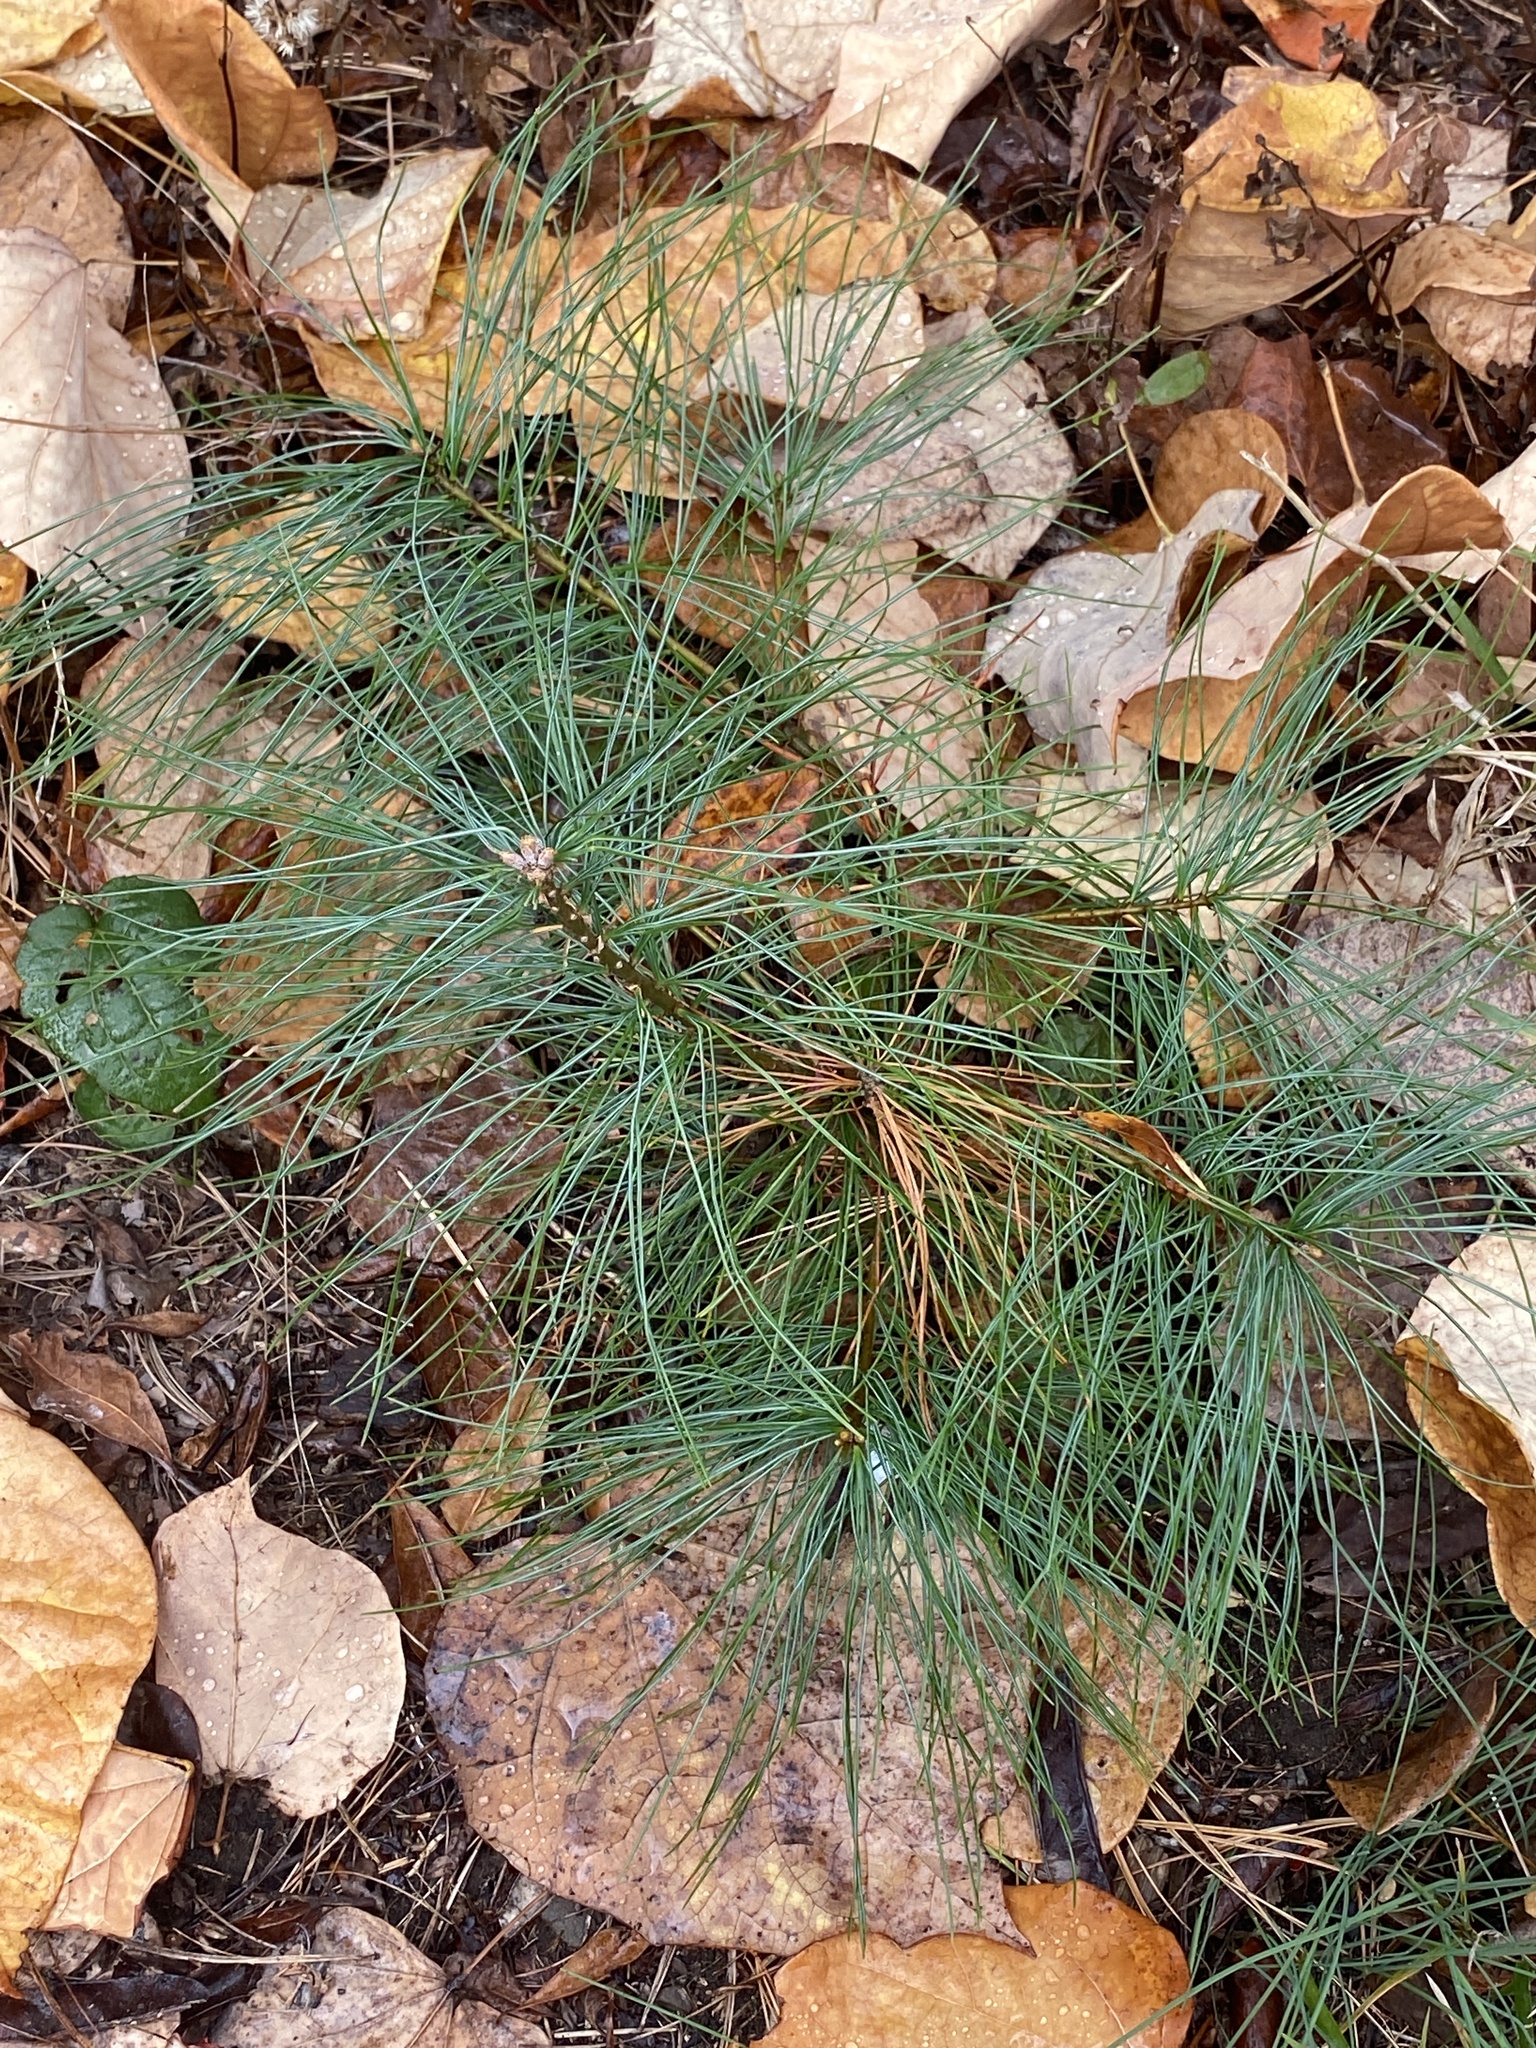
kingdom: Plantae
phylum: Tracheophyta
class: Pinopsida
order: Pinales
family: Pinaceae
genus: Pinus
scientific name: Pinus strobus
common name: Weymouth pine
